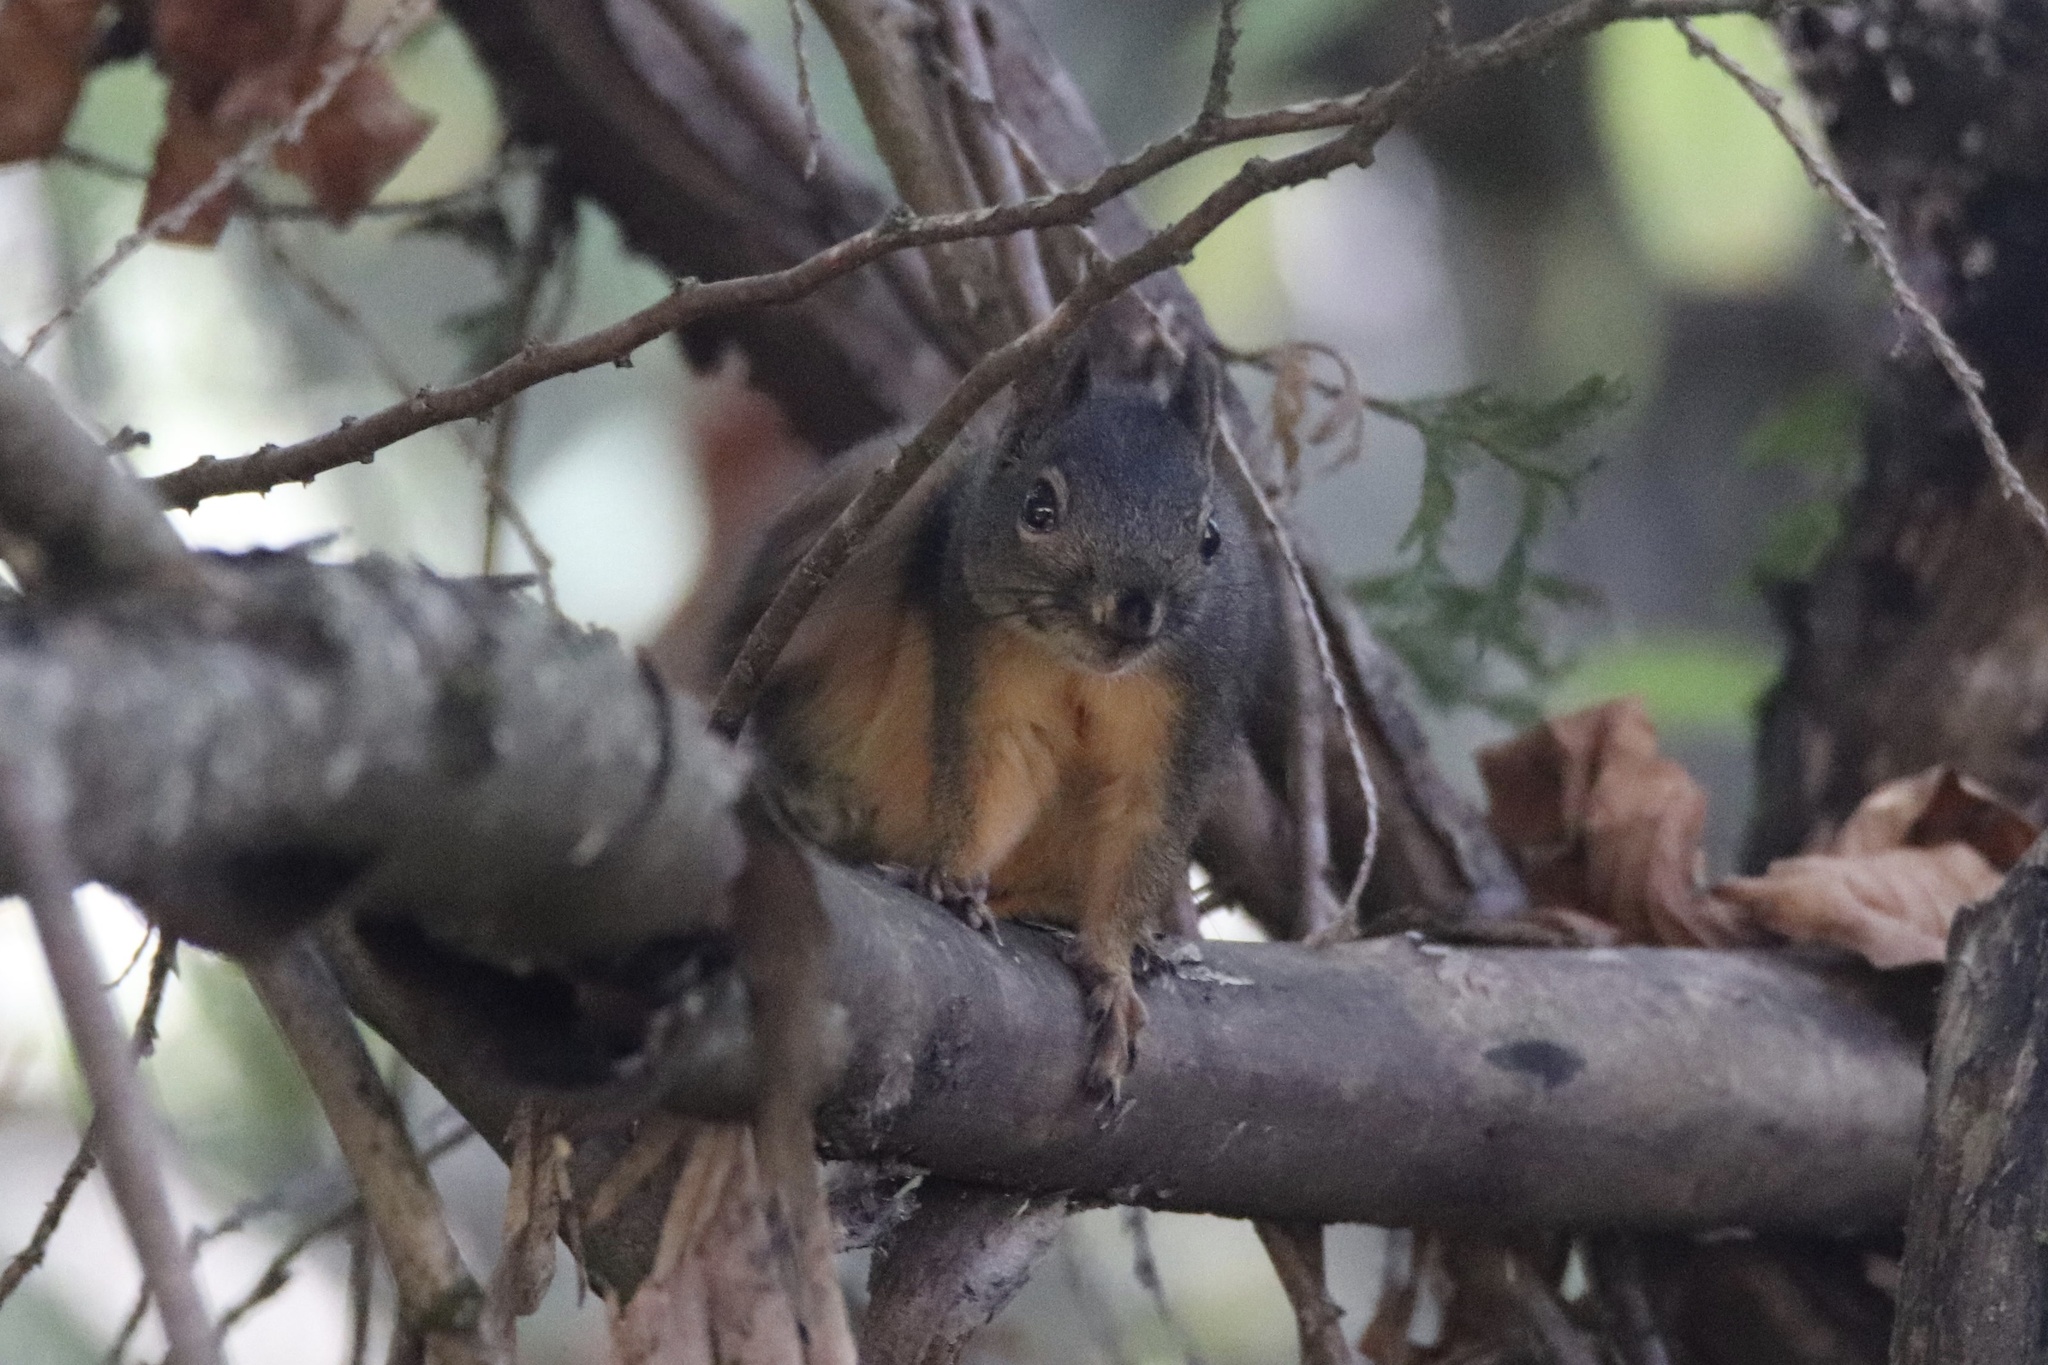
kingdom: Animalia
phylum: Chordata
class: Mammalia
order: Rodentia
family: Sciuridae
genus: Tamiasciurus
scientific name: Tamiasciurus douglasii
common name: Douglas's squirrel
